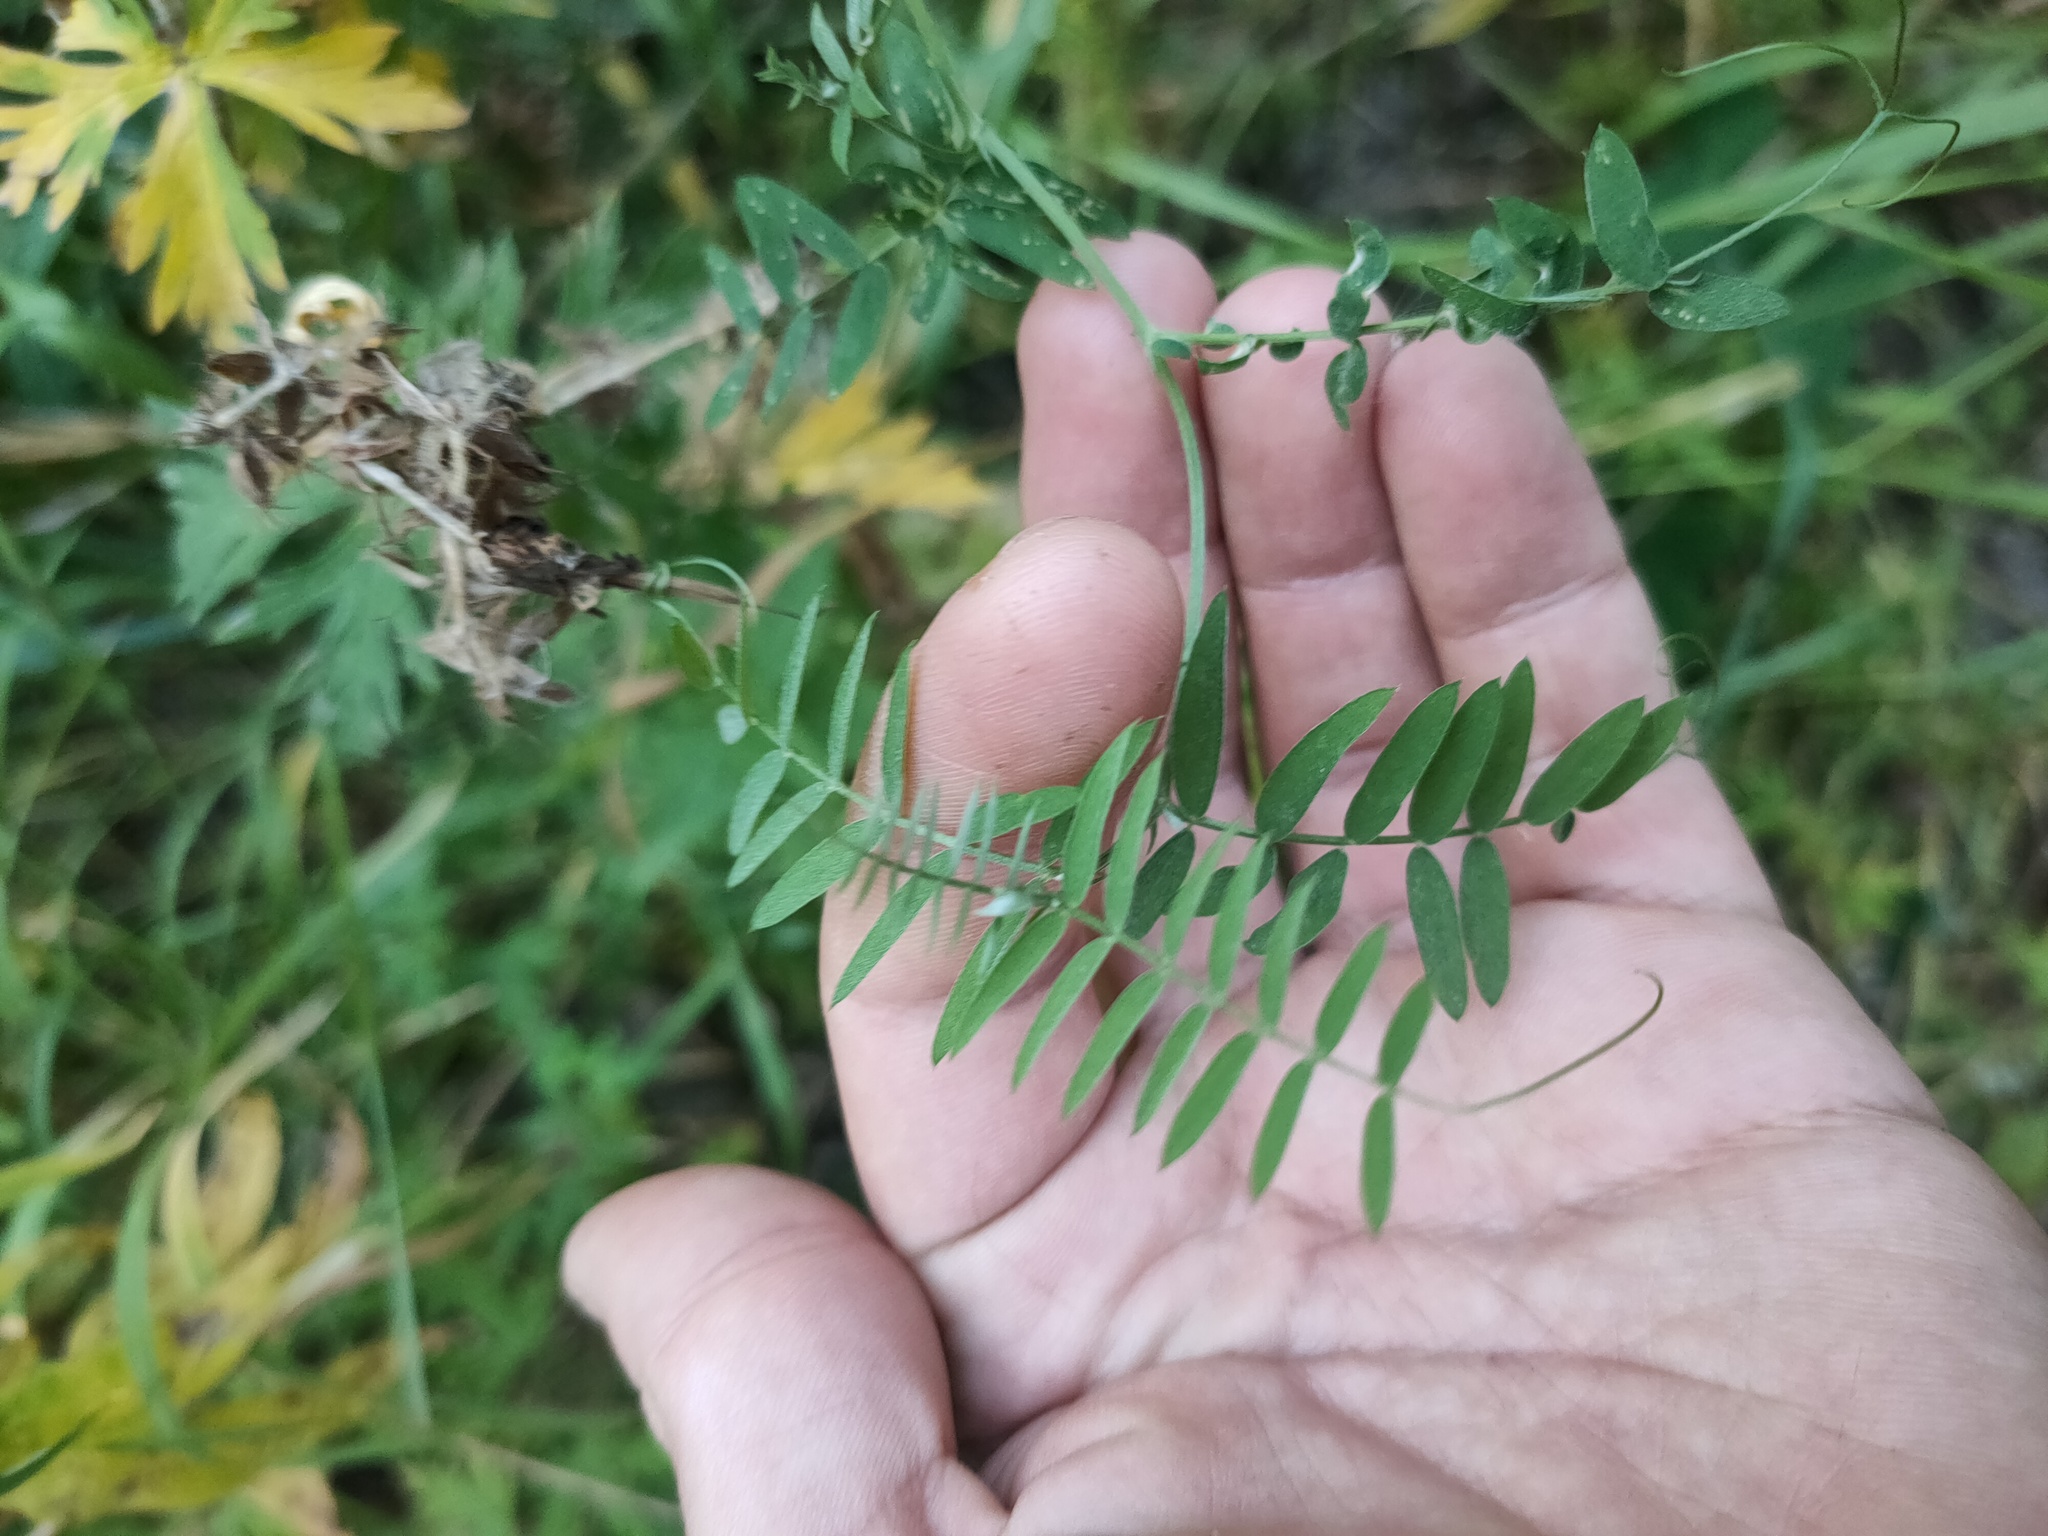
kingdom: Plantae
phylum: Tracheophyta
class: Magnoliopsida
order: Fabales
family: Fabaceae
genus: Vicia
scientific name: Vicia cracca
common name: Bird vetch
